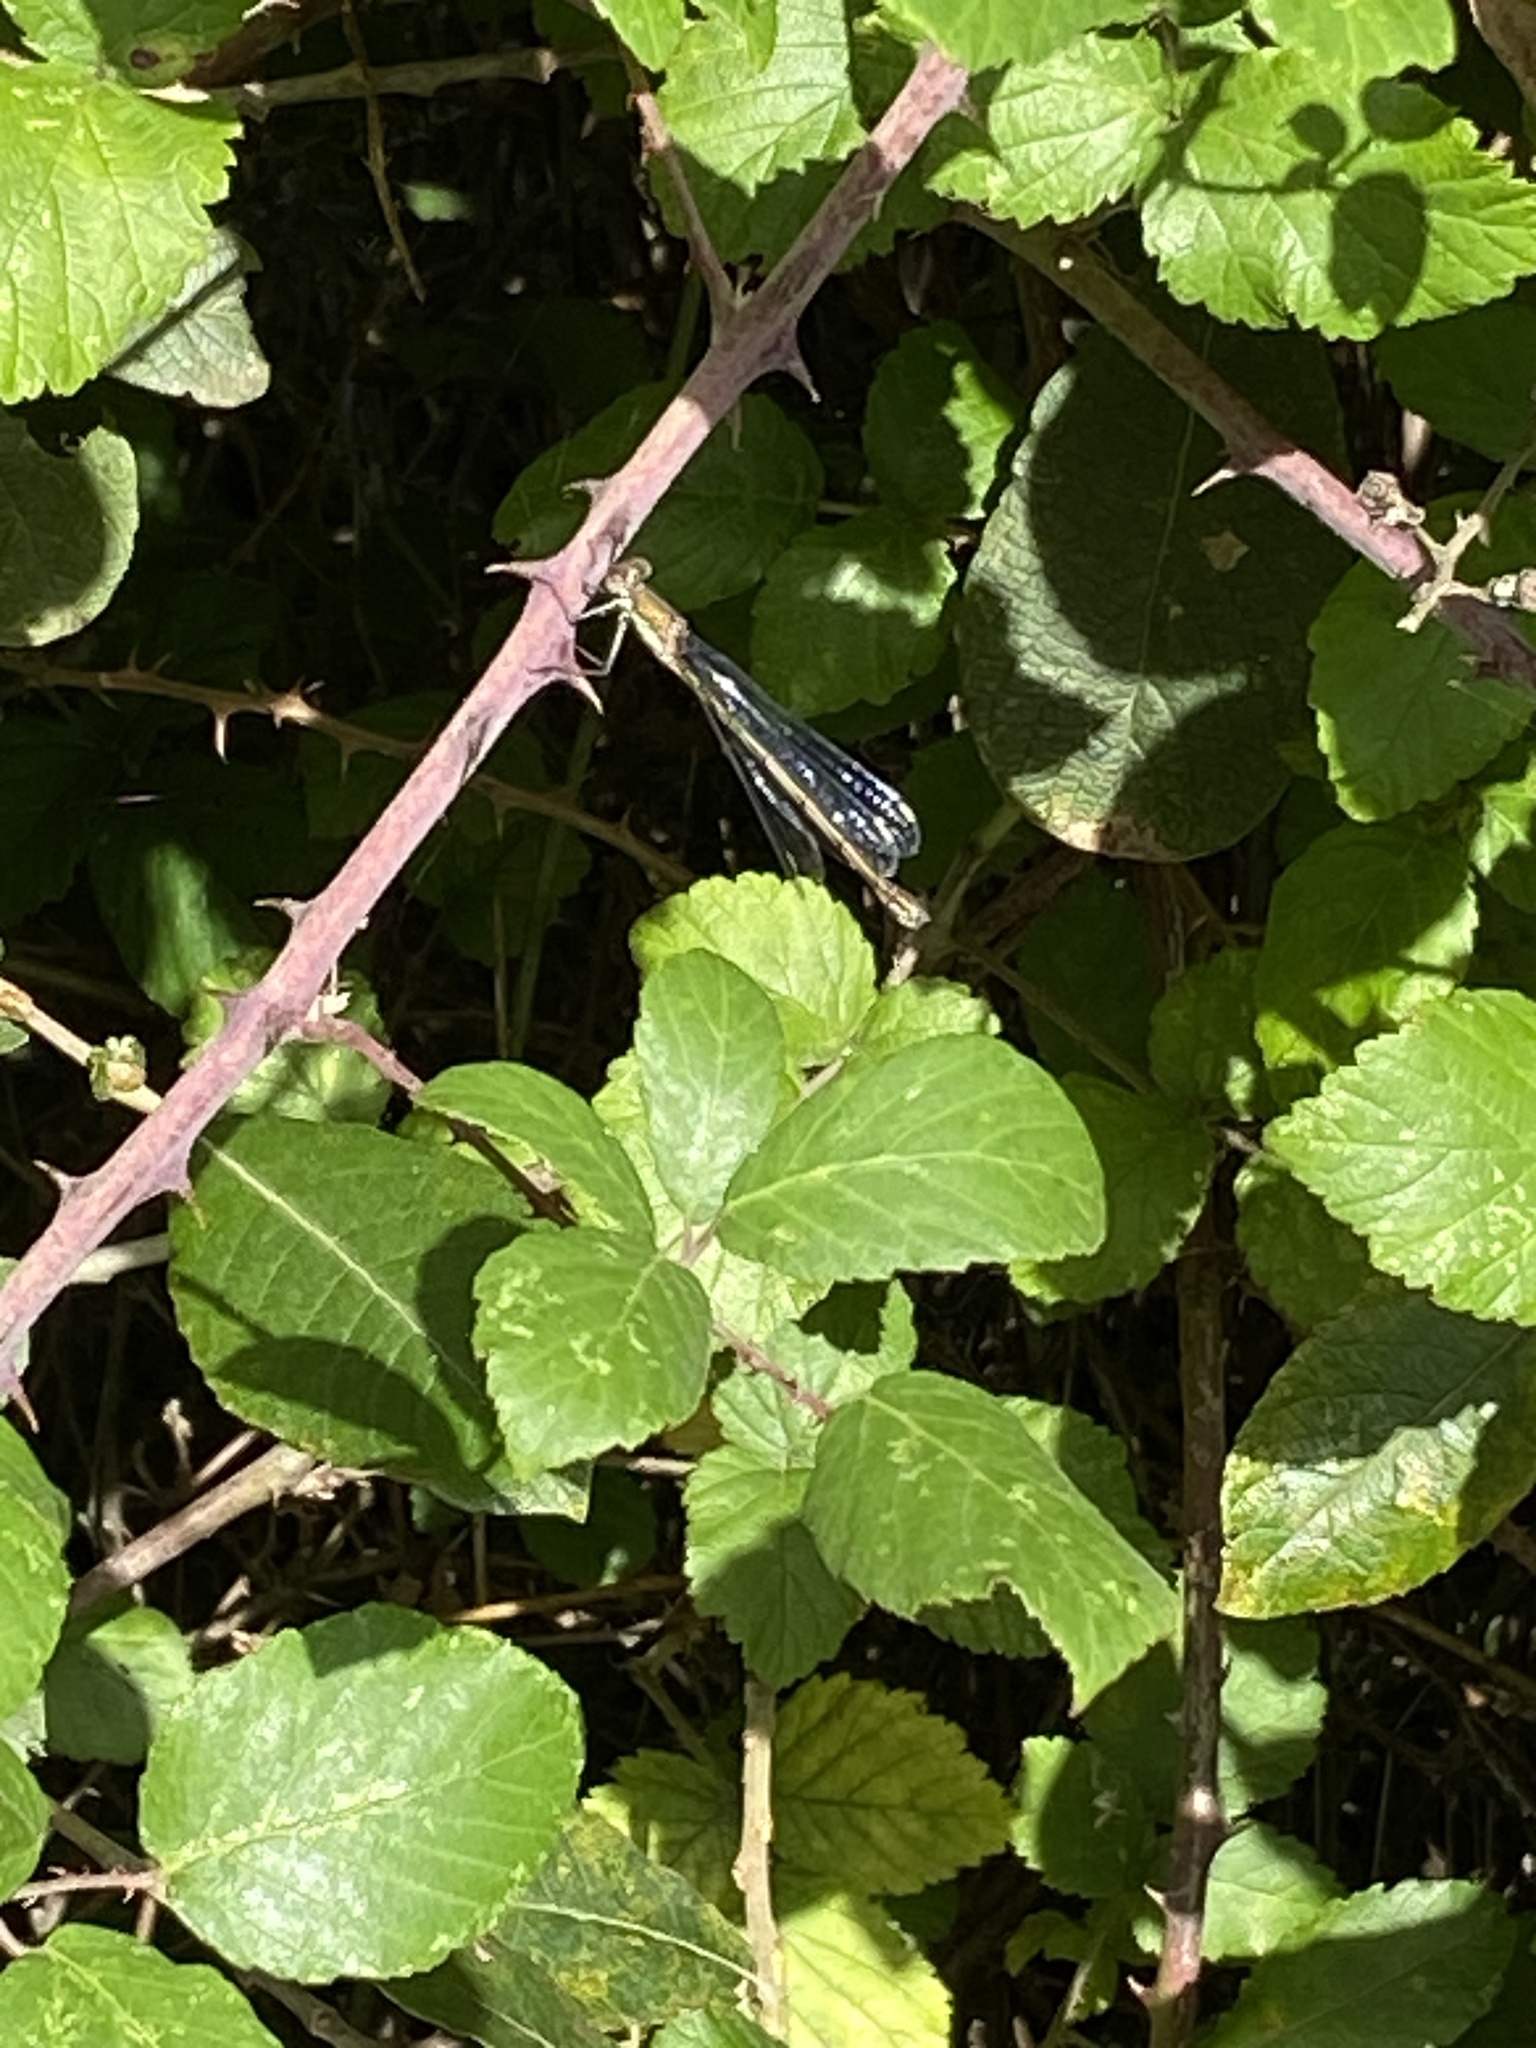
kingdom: Animalia
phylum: Arthropoda
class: Insecta
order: Odonata
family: Lestidae
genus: Chalcolestes
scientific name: Chalcolestes viridis
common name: Green emerald damselfly
